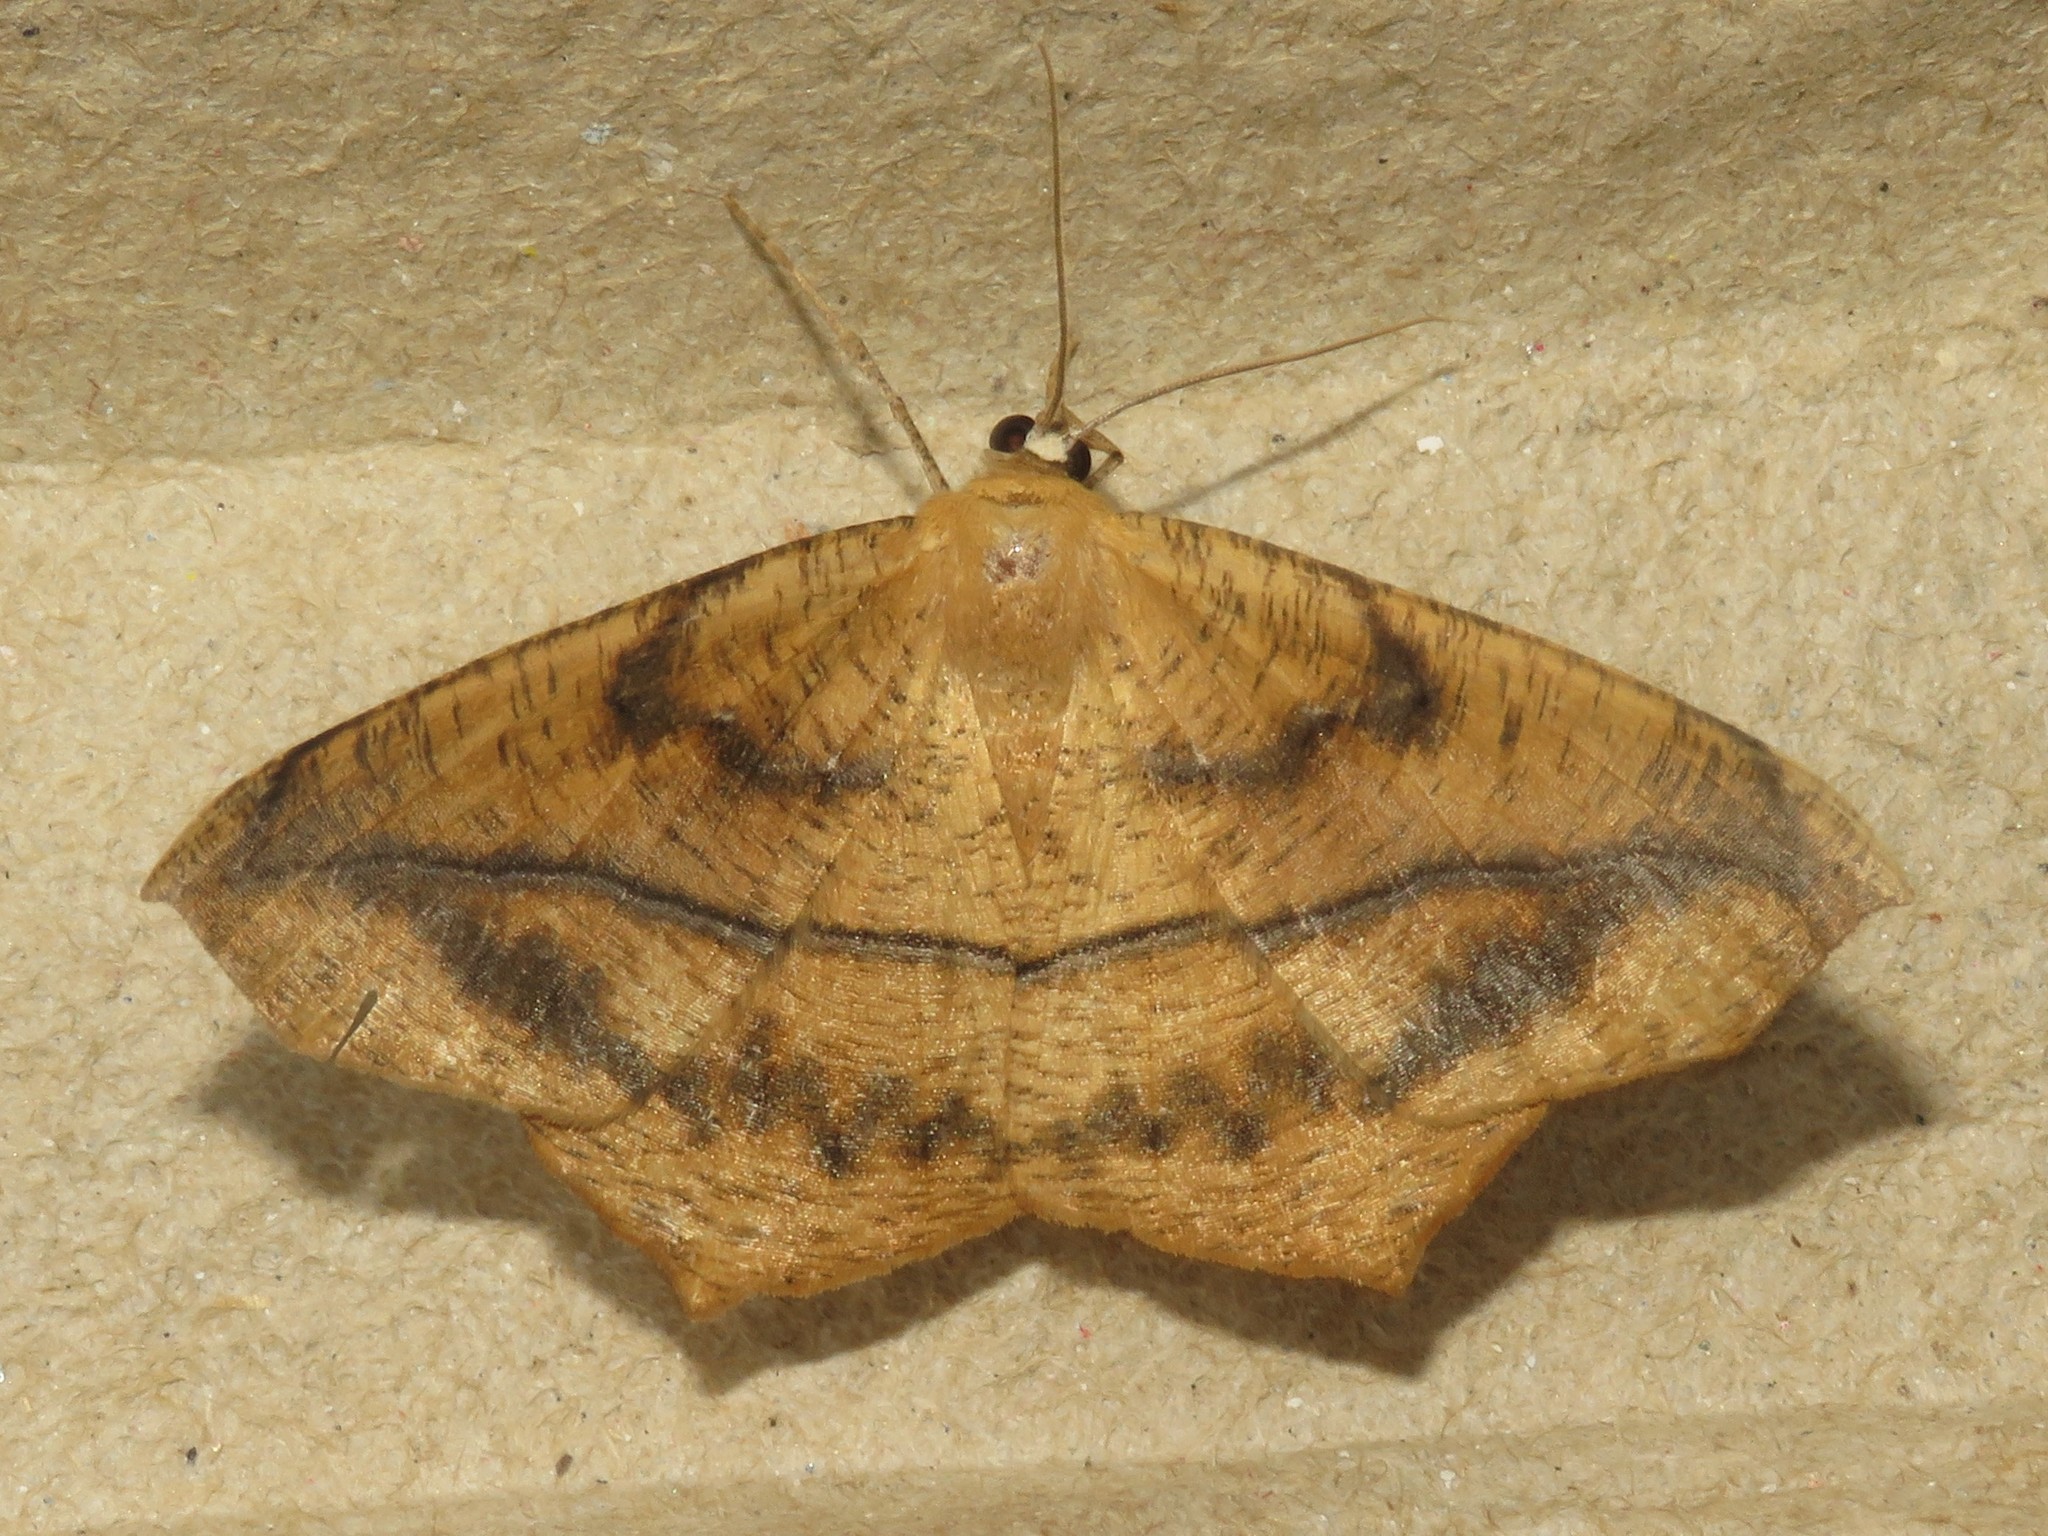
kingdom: Animalia
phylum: Arthropoda
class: Insecta
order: Lepidoptera
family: Geometridae
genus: Prochoerodes
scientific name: Prochoerodes lineola
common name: Large maple spanworm
